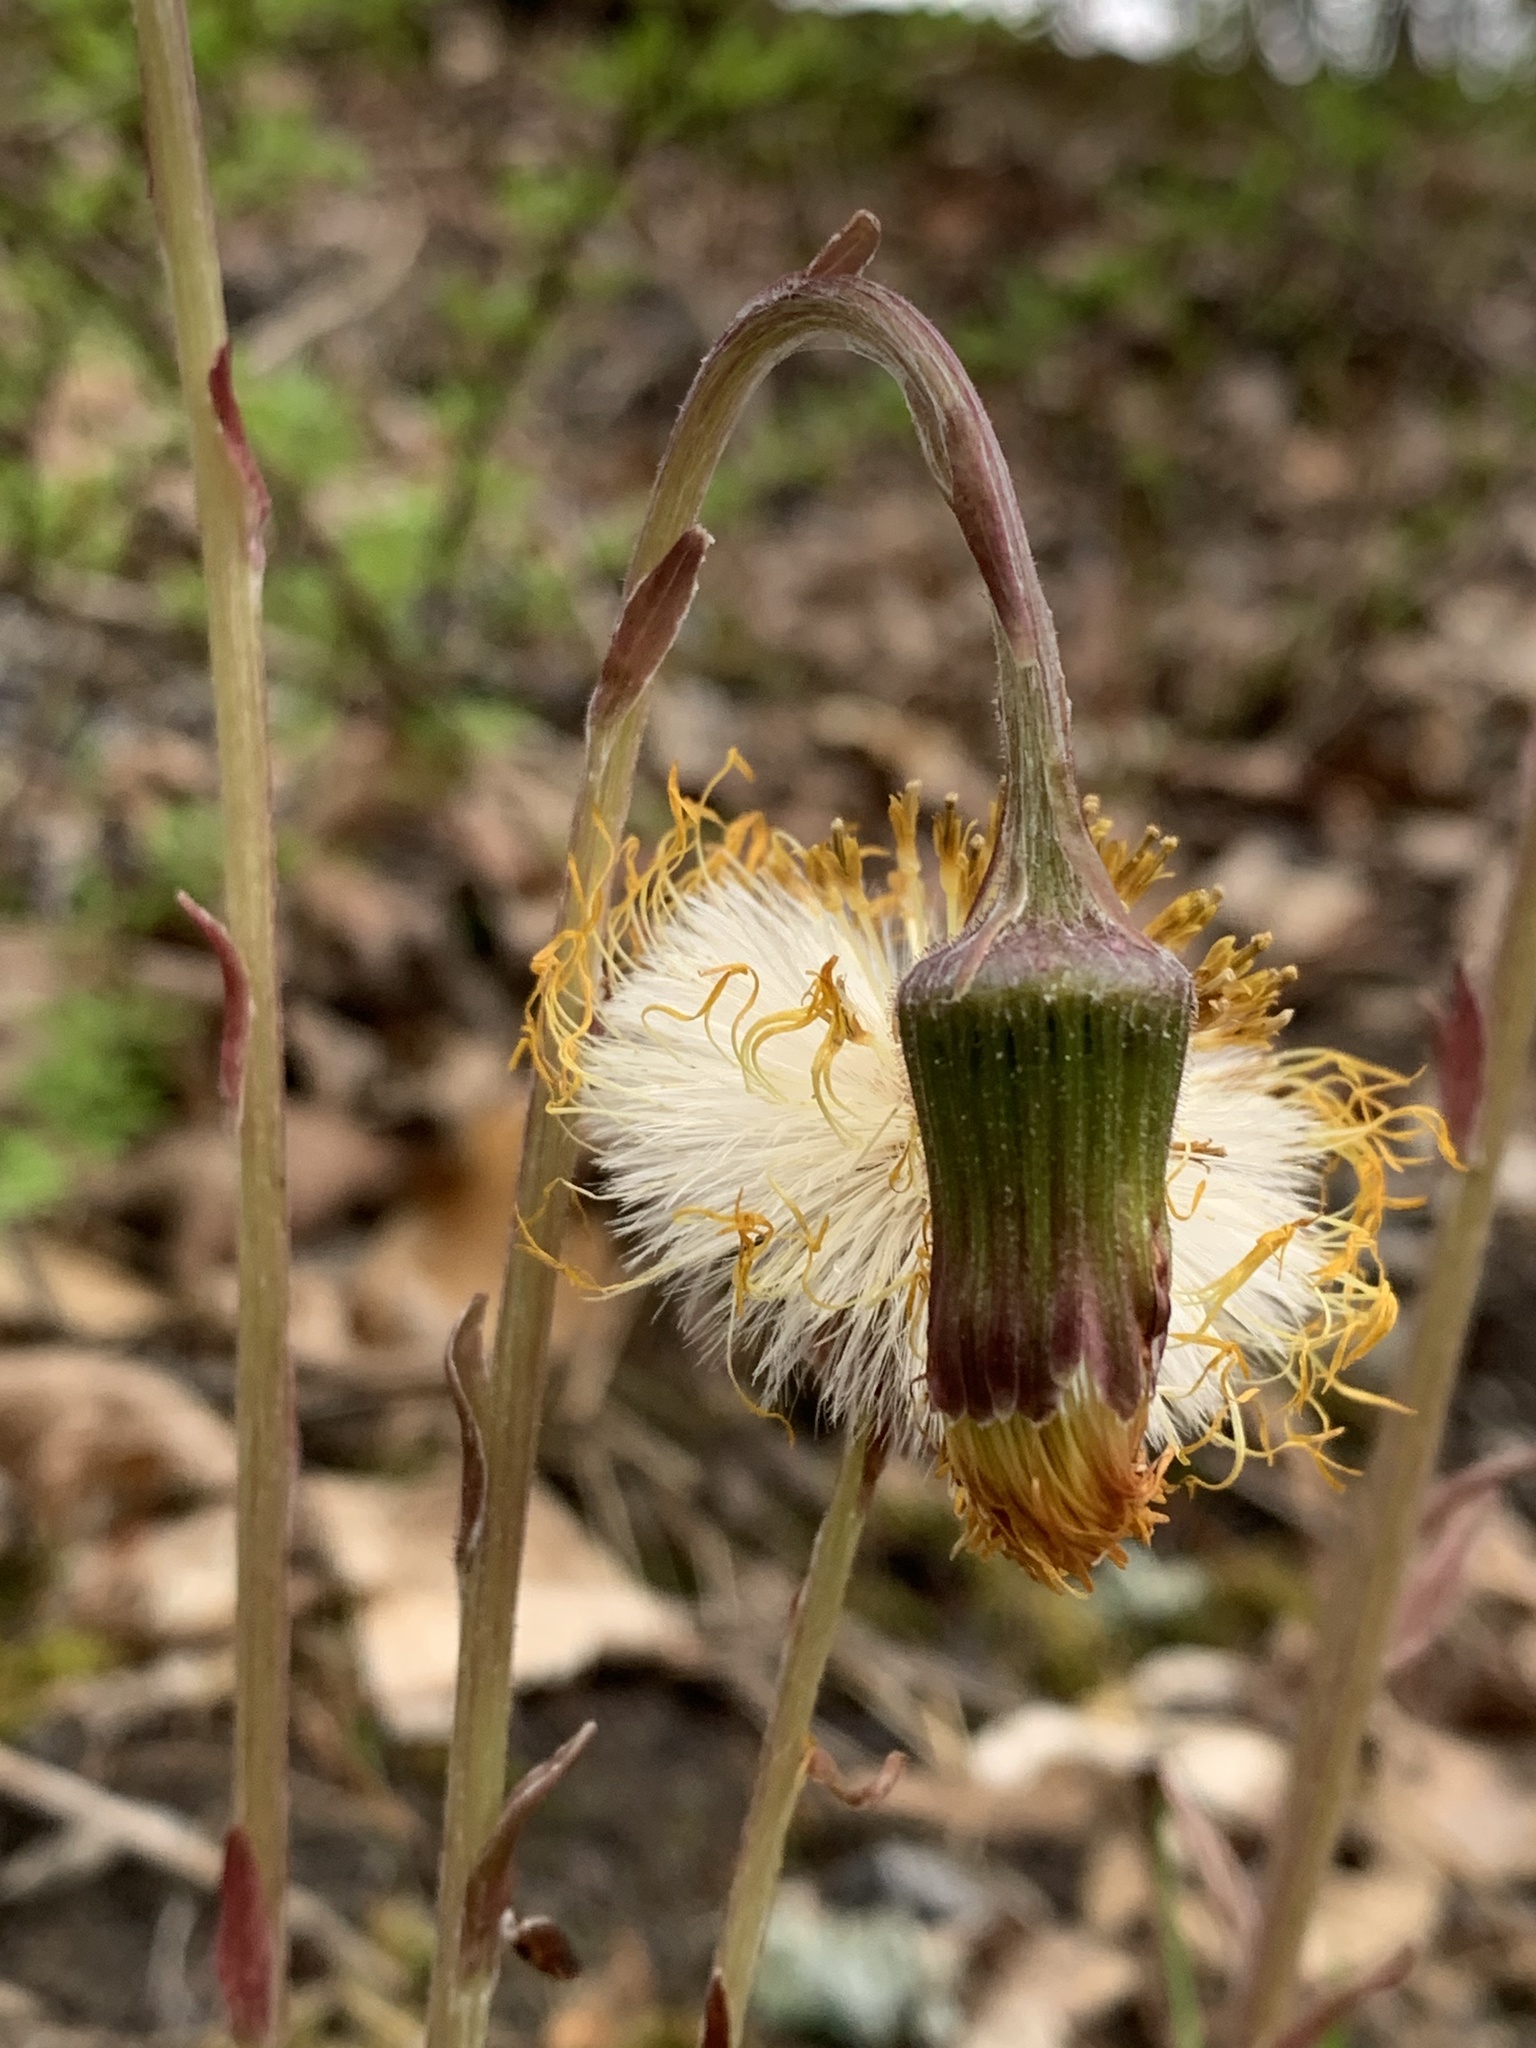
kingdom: Plantae
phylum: Tracheophyta
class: Magnoliopsida
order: Asterales
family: Asteraceae
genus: Tussilago
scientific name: Tussilago farfara
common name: Coltsfoot
